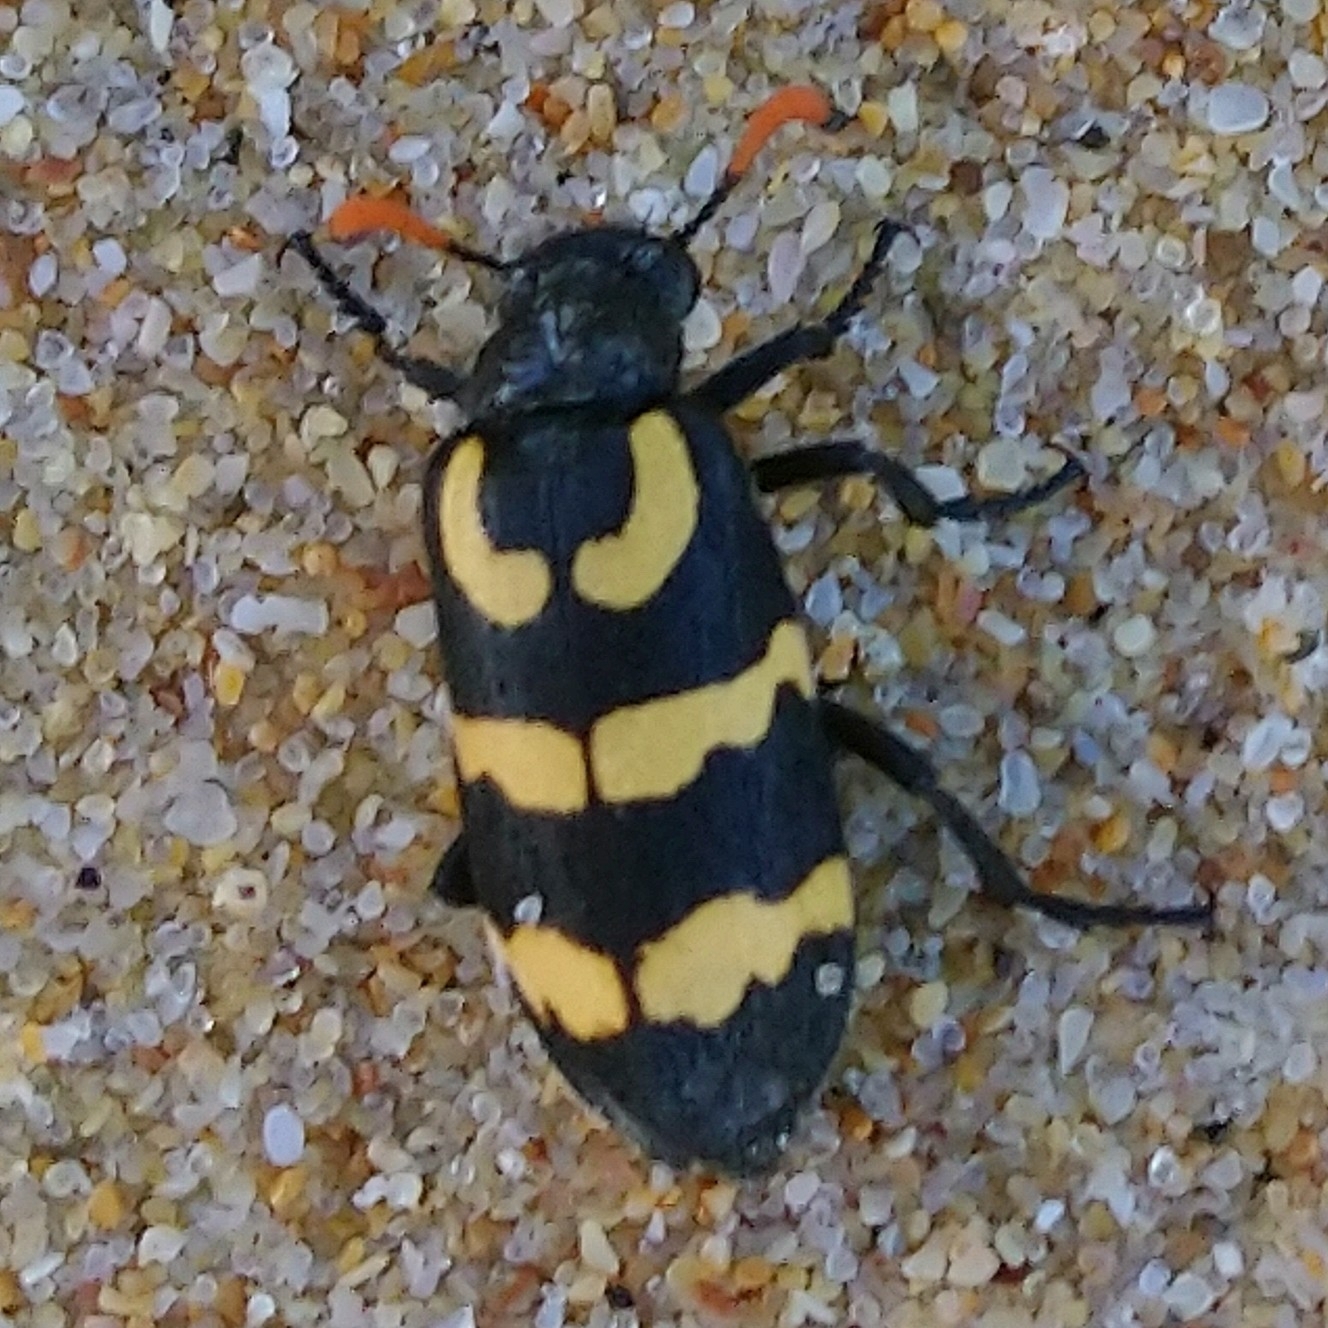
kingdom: Animalia
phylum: Arthropoda
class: Insecta
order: Coleoptera
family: Meloidae
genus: Meloe
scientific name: Meloe lunata
